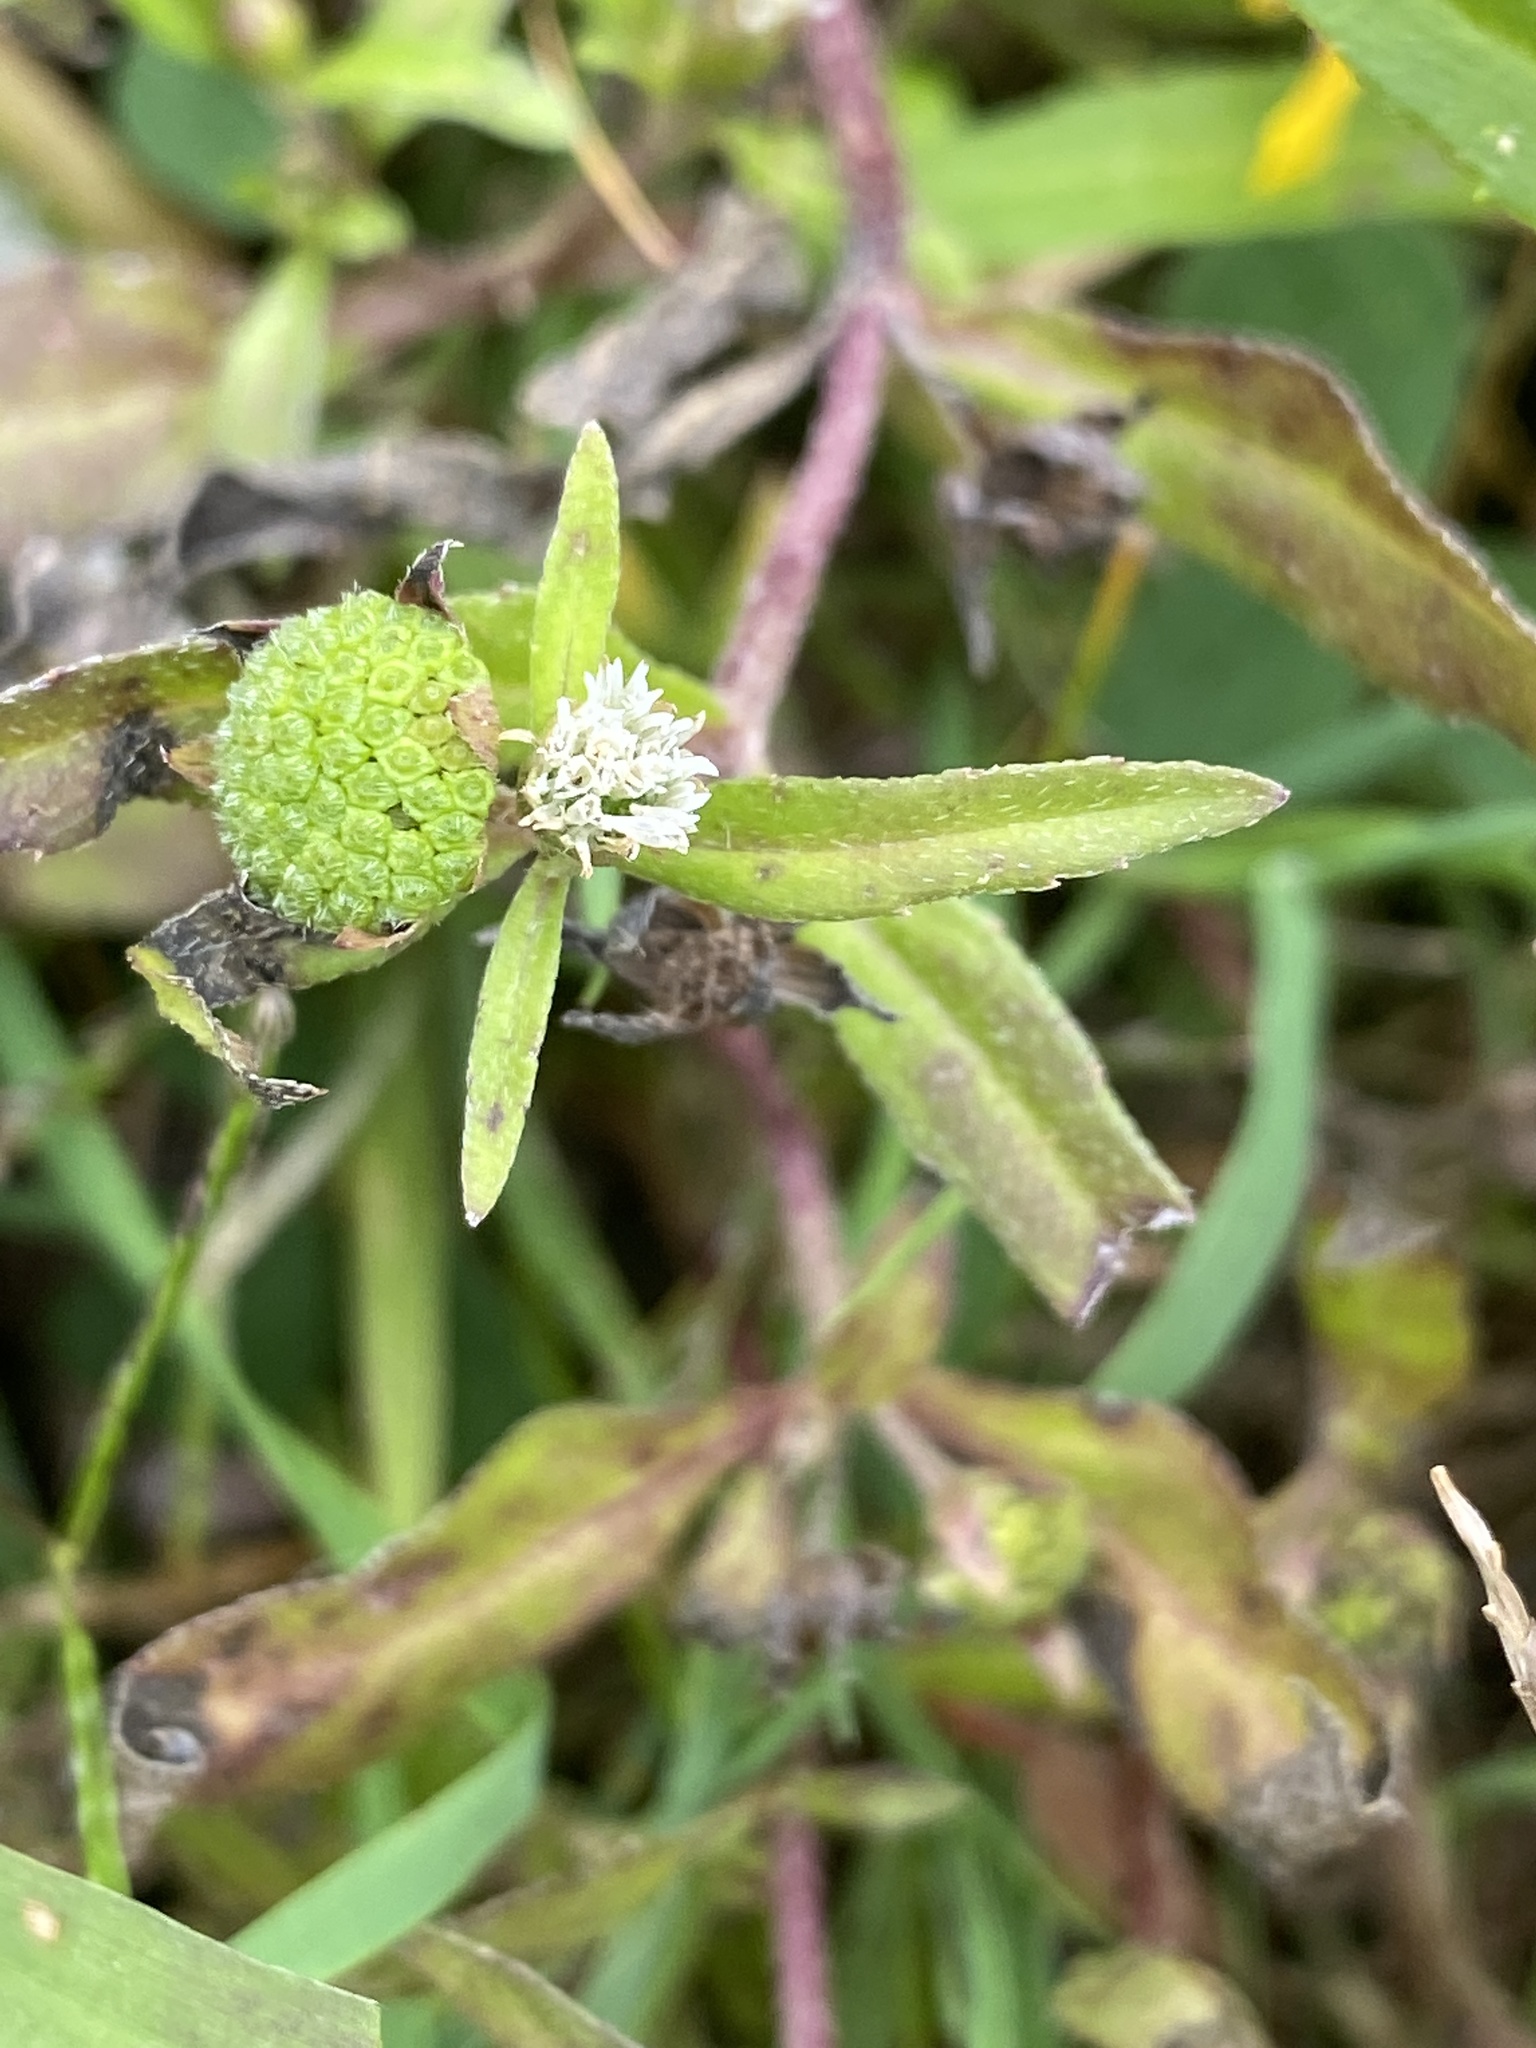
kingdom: Plantae
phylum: Tracheophyta
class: Magnoliopsida
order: Asterales
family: Asteraceae
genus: Eclipta
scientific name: Eclipta prostrata
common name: False daisy
